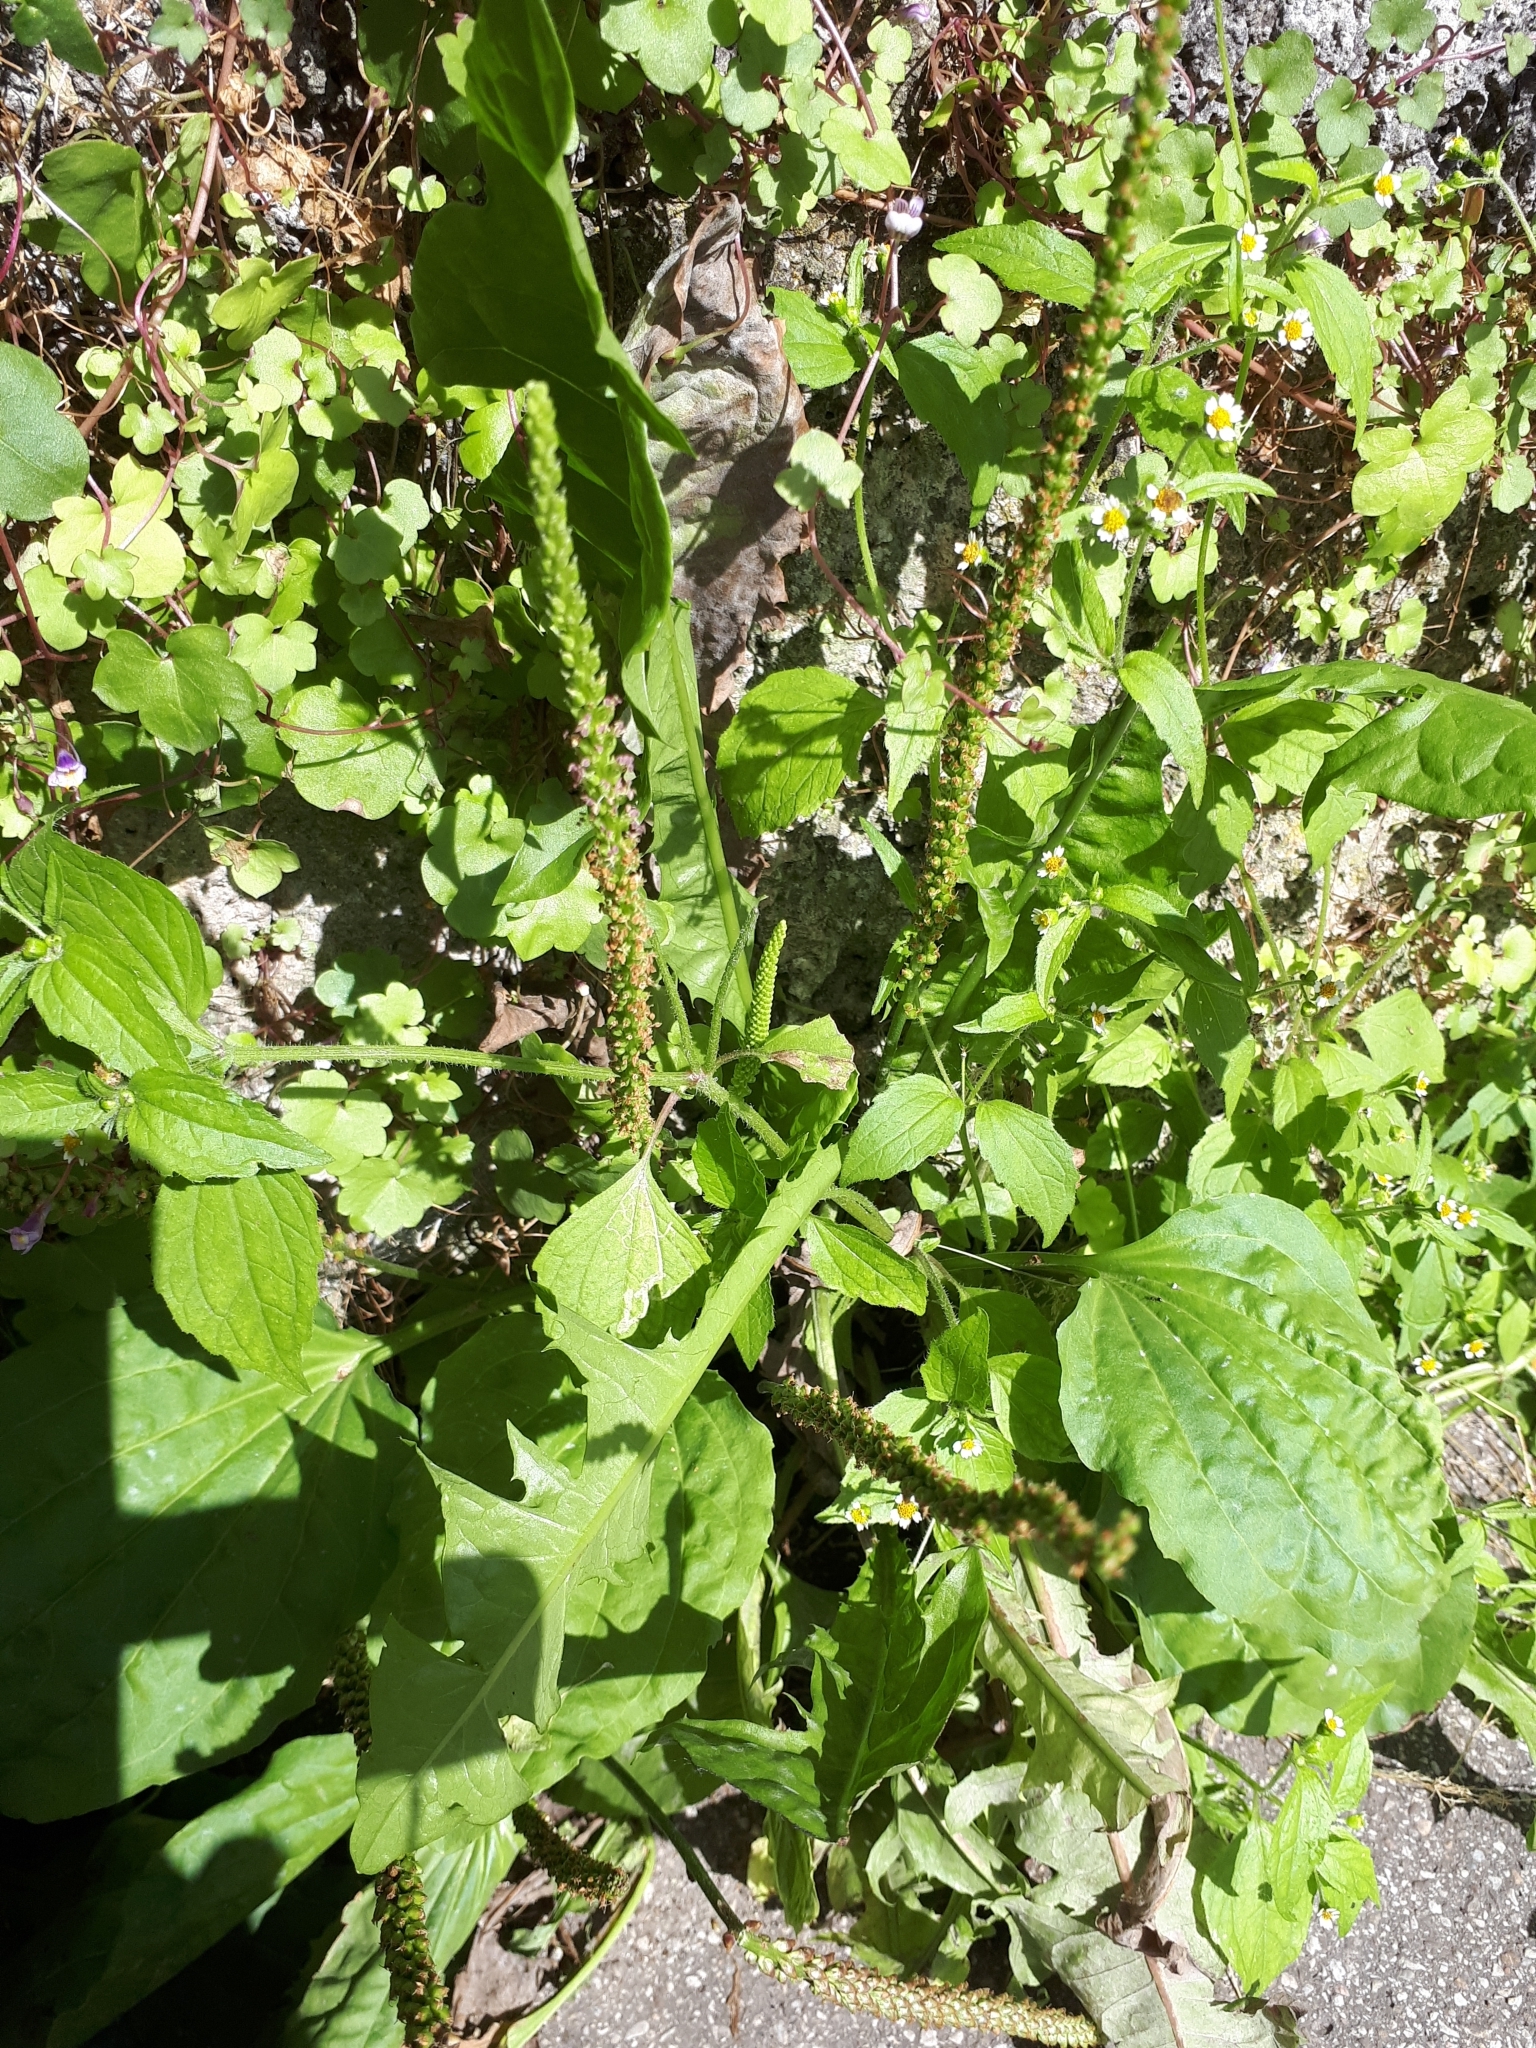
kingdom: Plantae
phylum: Tracheophyta
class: Magnoliopsida
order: Lamiales
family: Plantaginaceae
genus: Plantago
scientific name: Plantago major
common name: Common plantain
